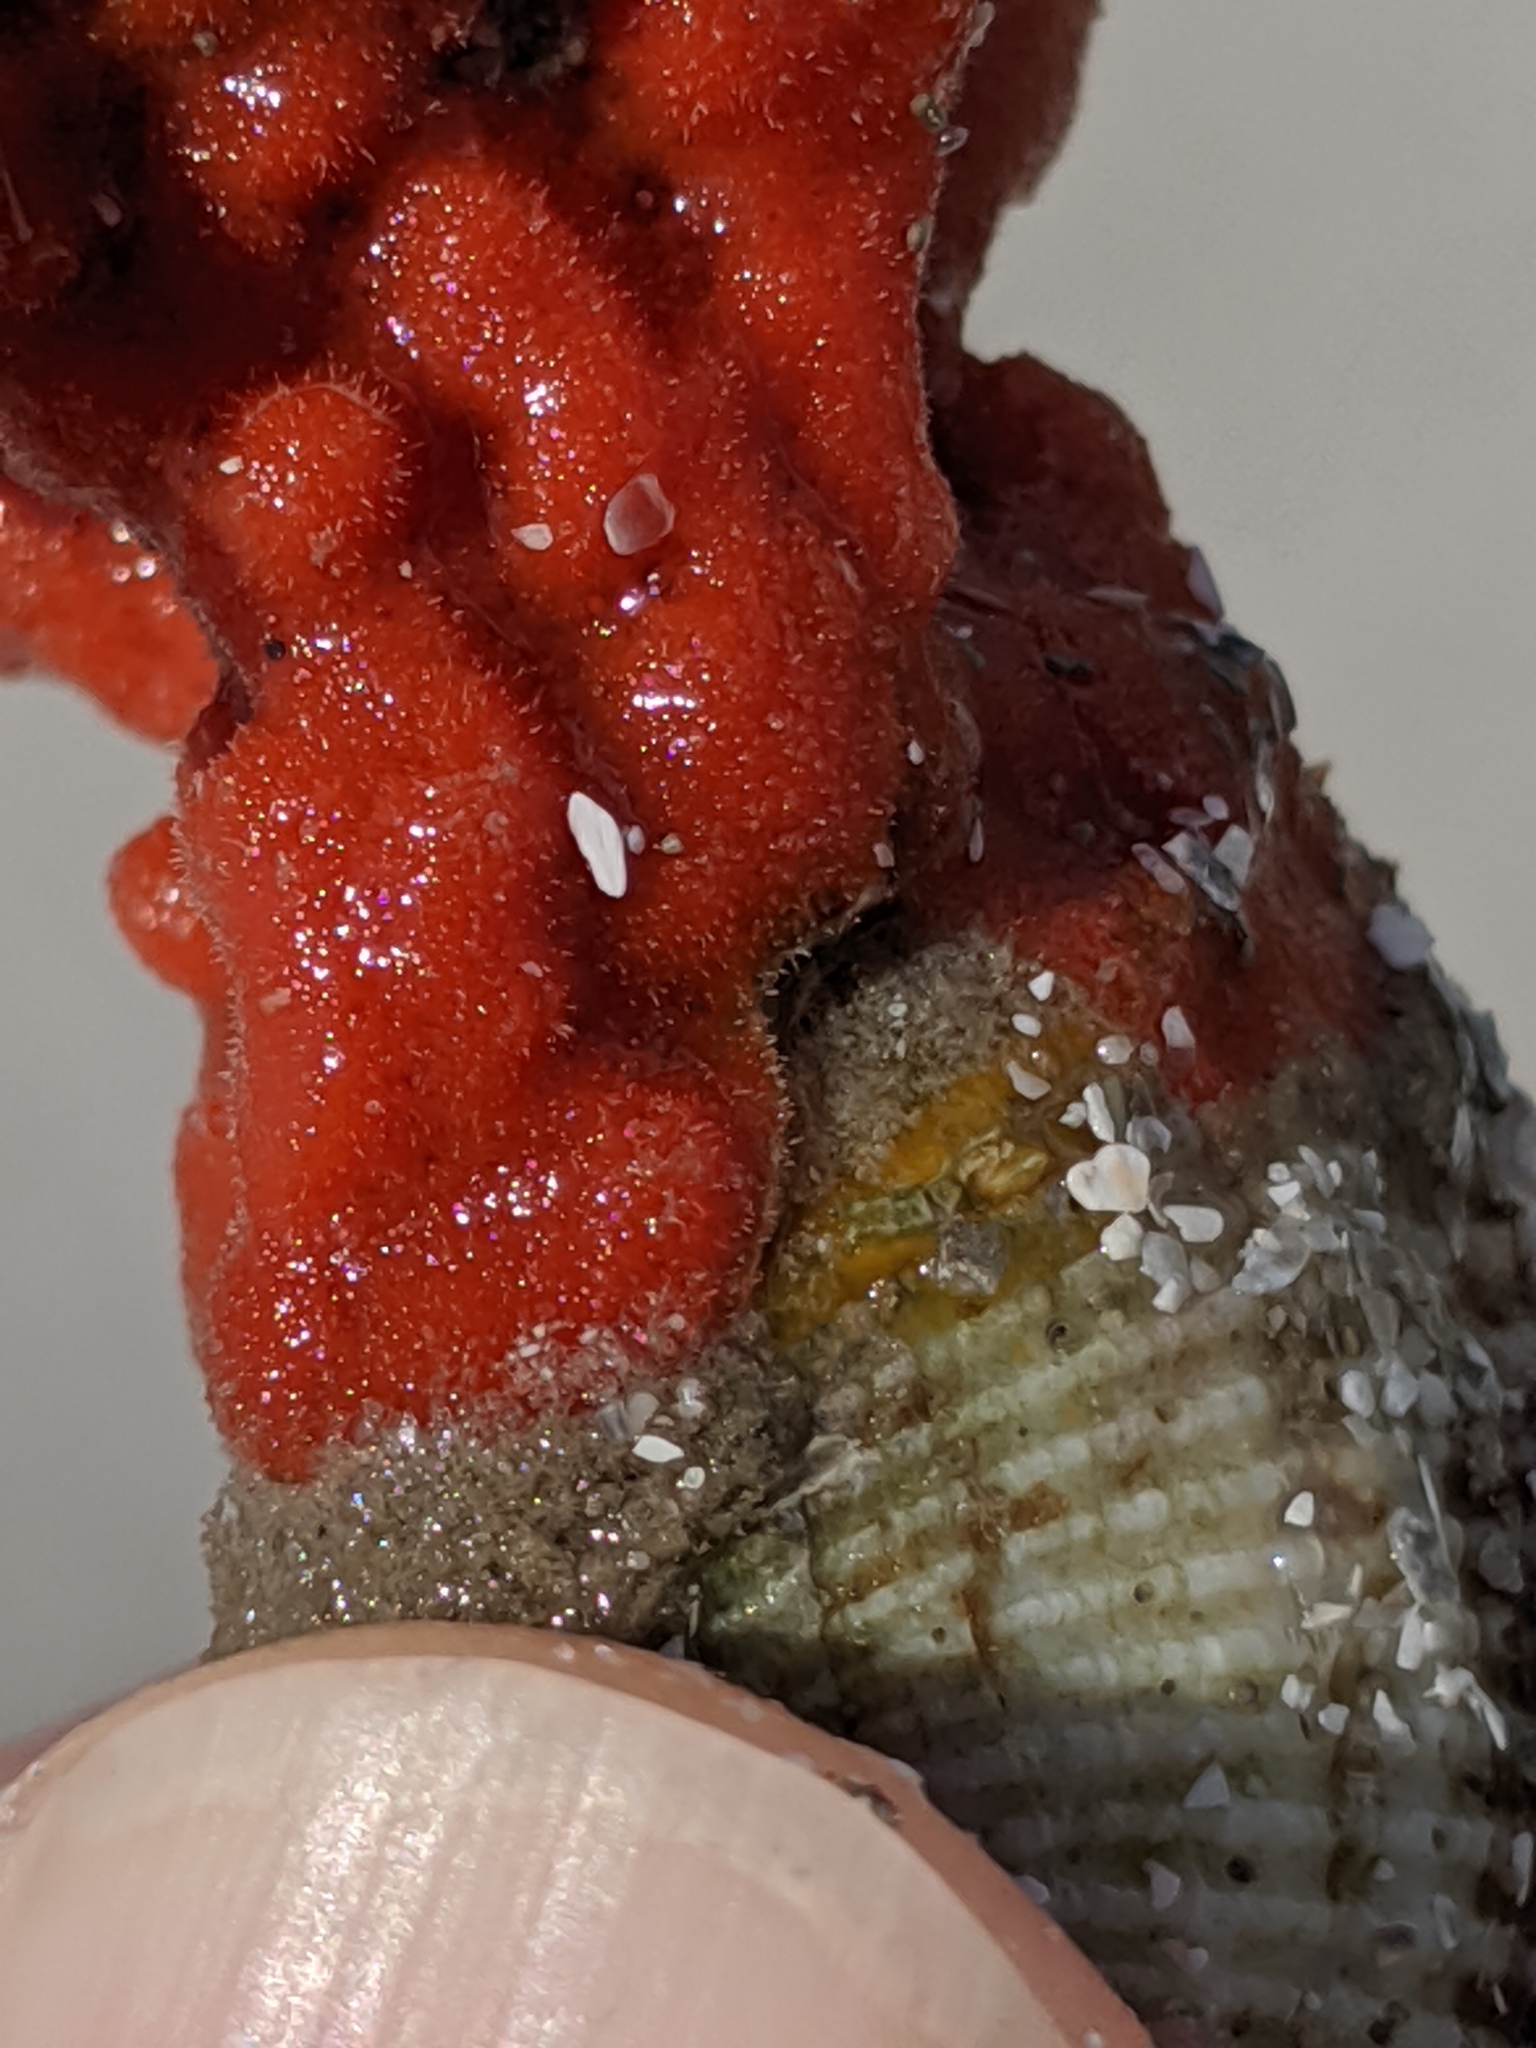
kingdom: Animalia
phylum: Porifera
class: Demospongiae
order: Poecilosclerida
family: Microcionidae
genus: Clathria
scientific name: Clathria prolifera
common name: Red beard sponge
